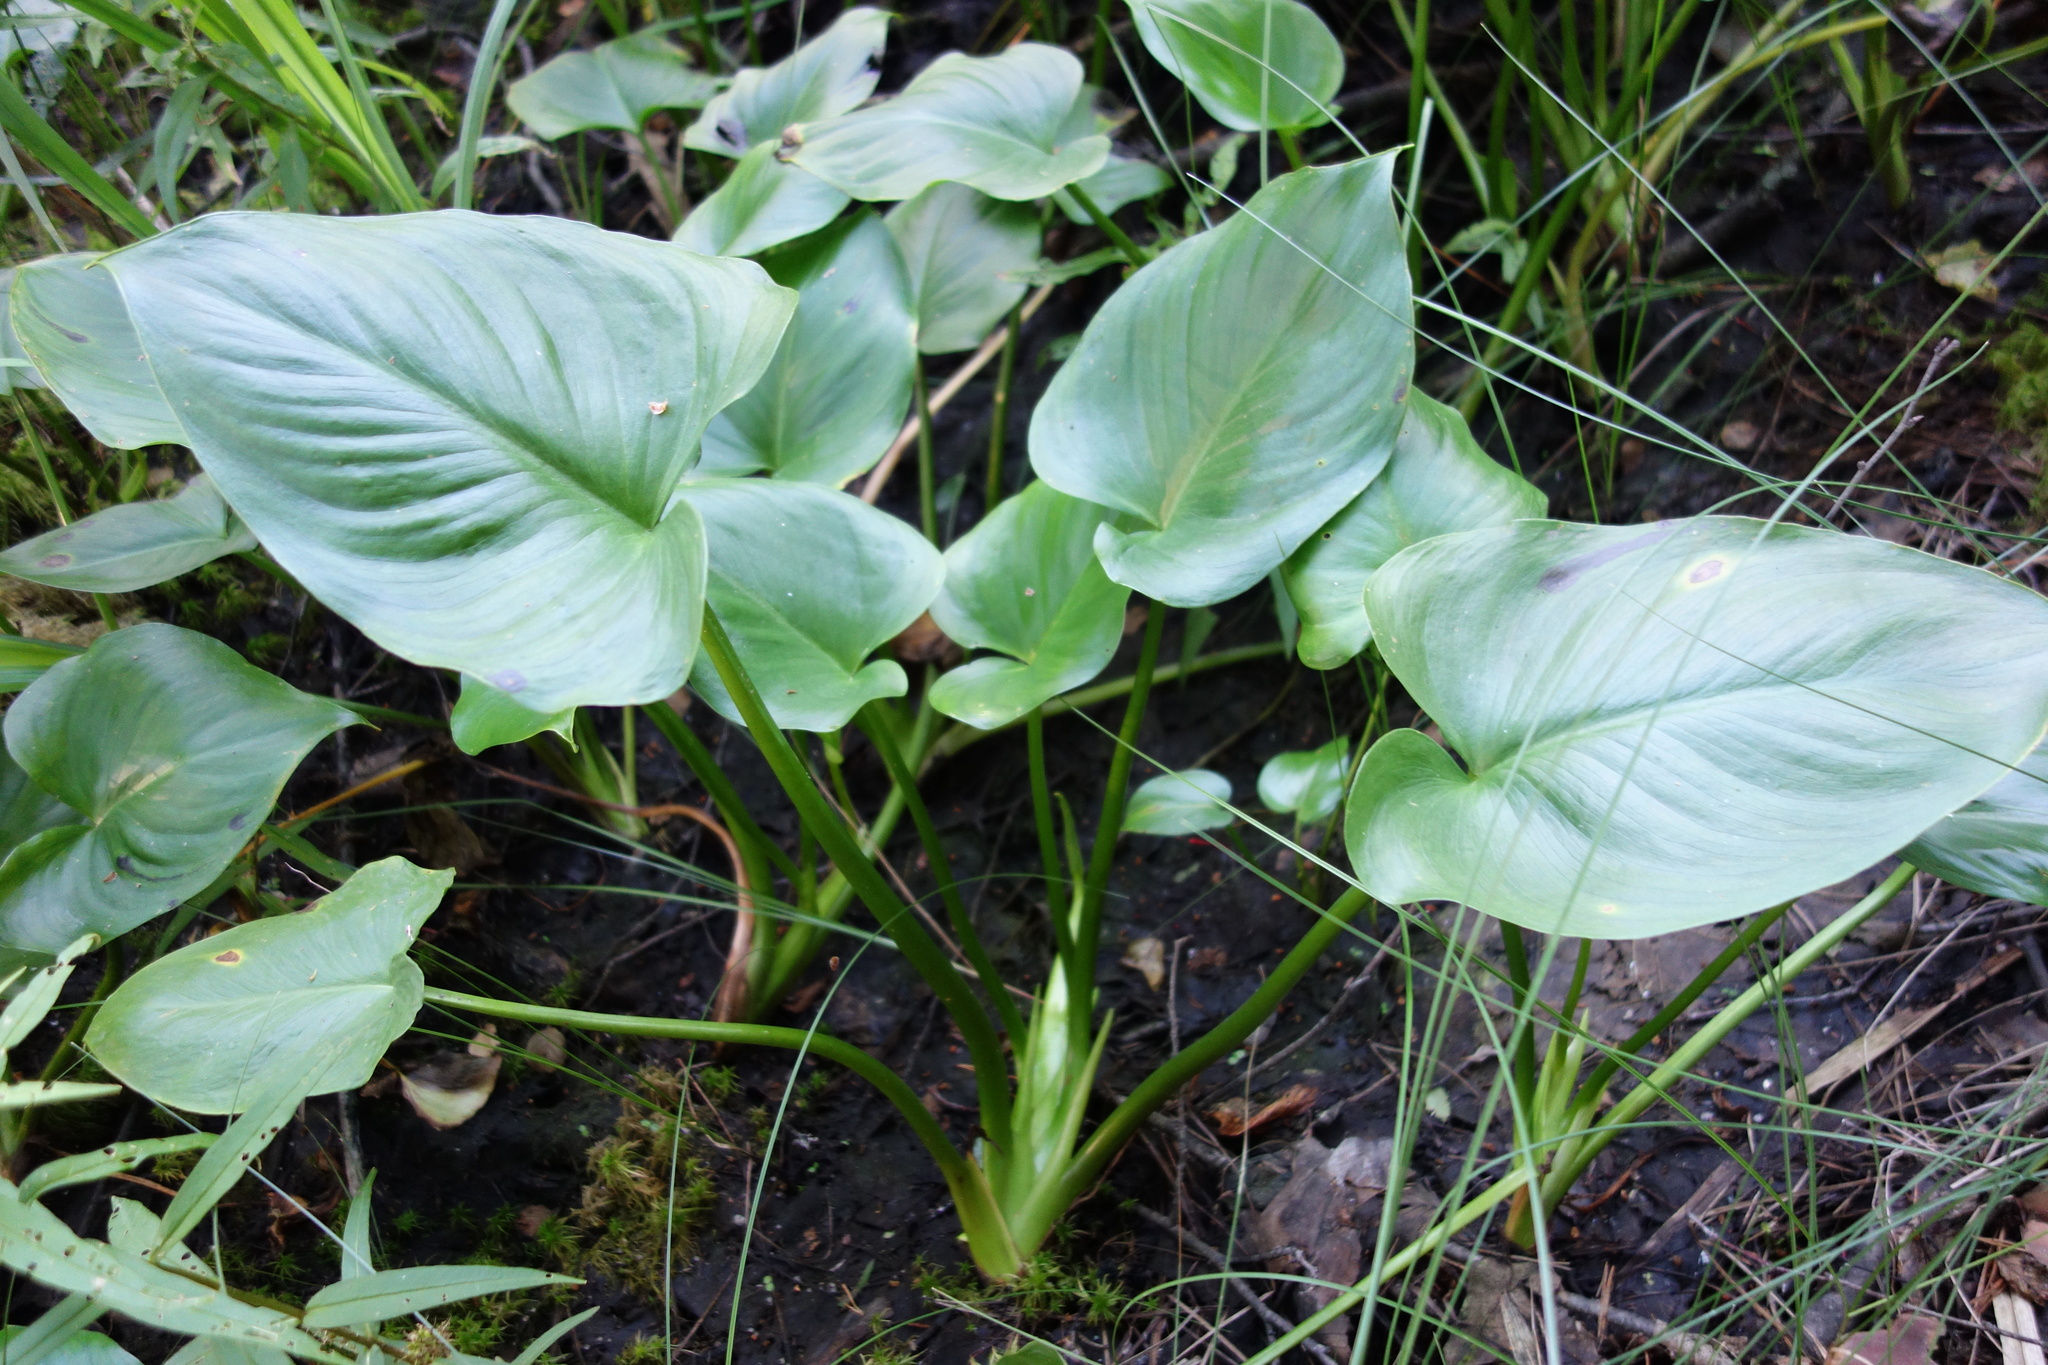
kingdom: Plantae
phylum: Tracheophyta
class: Liliopsida
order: Alismatales
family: Araceae
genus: Calla
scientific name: Calla palustris
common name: Bog arum
